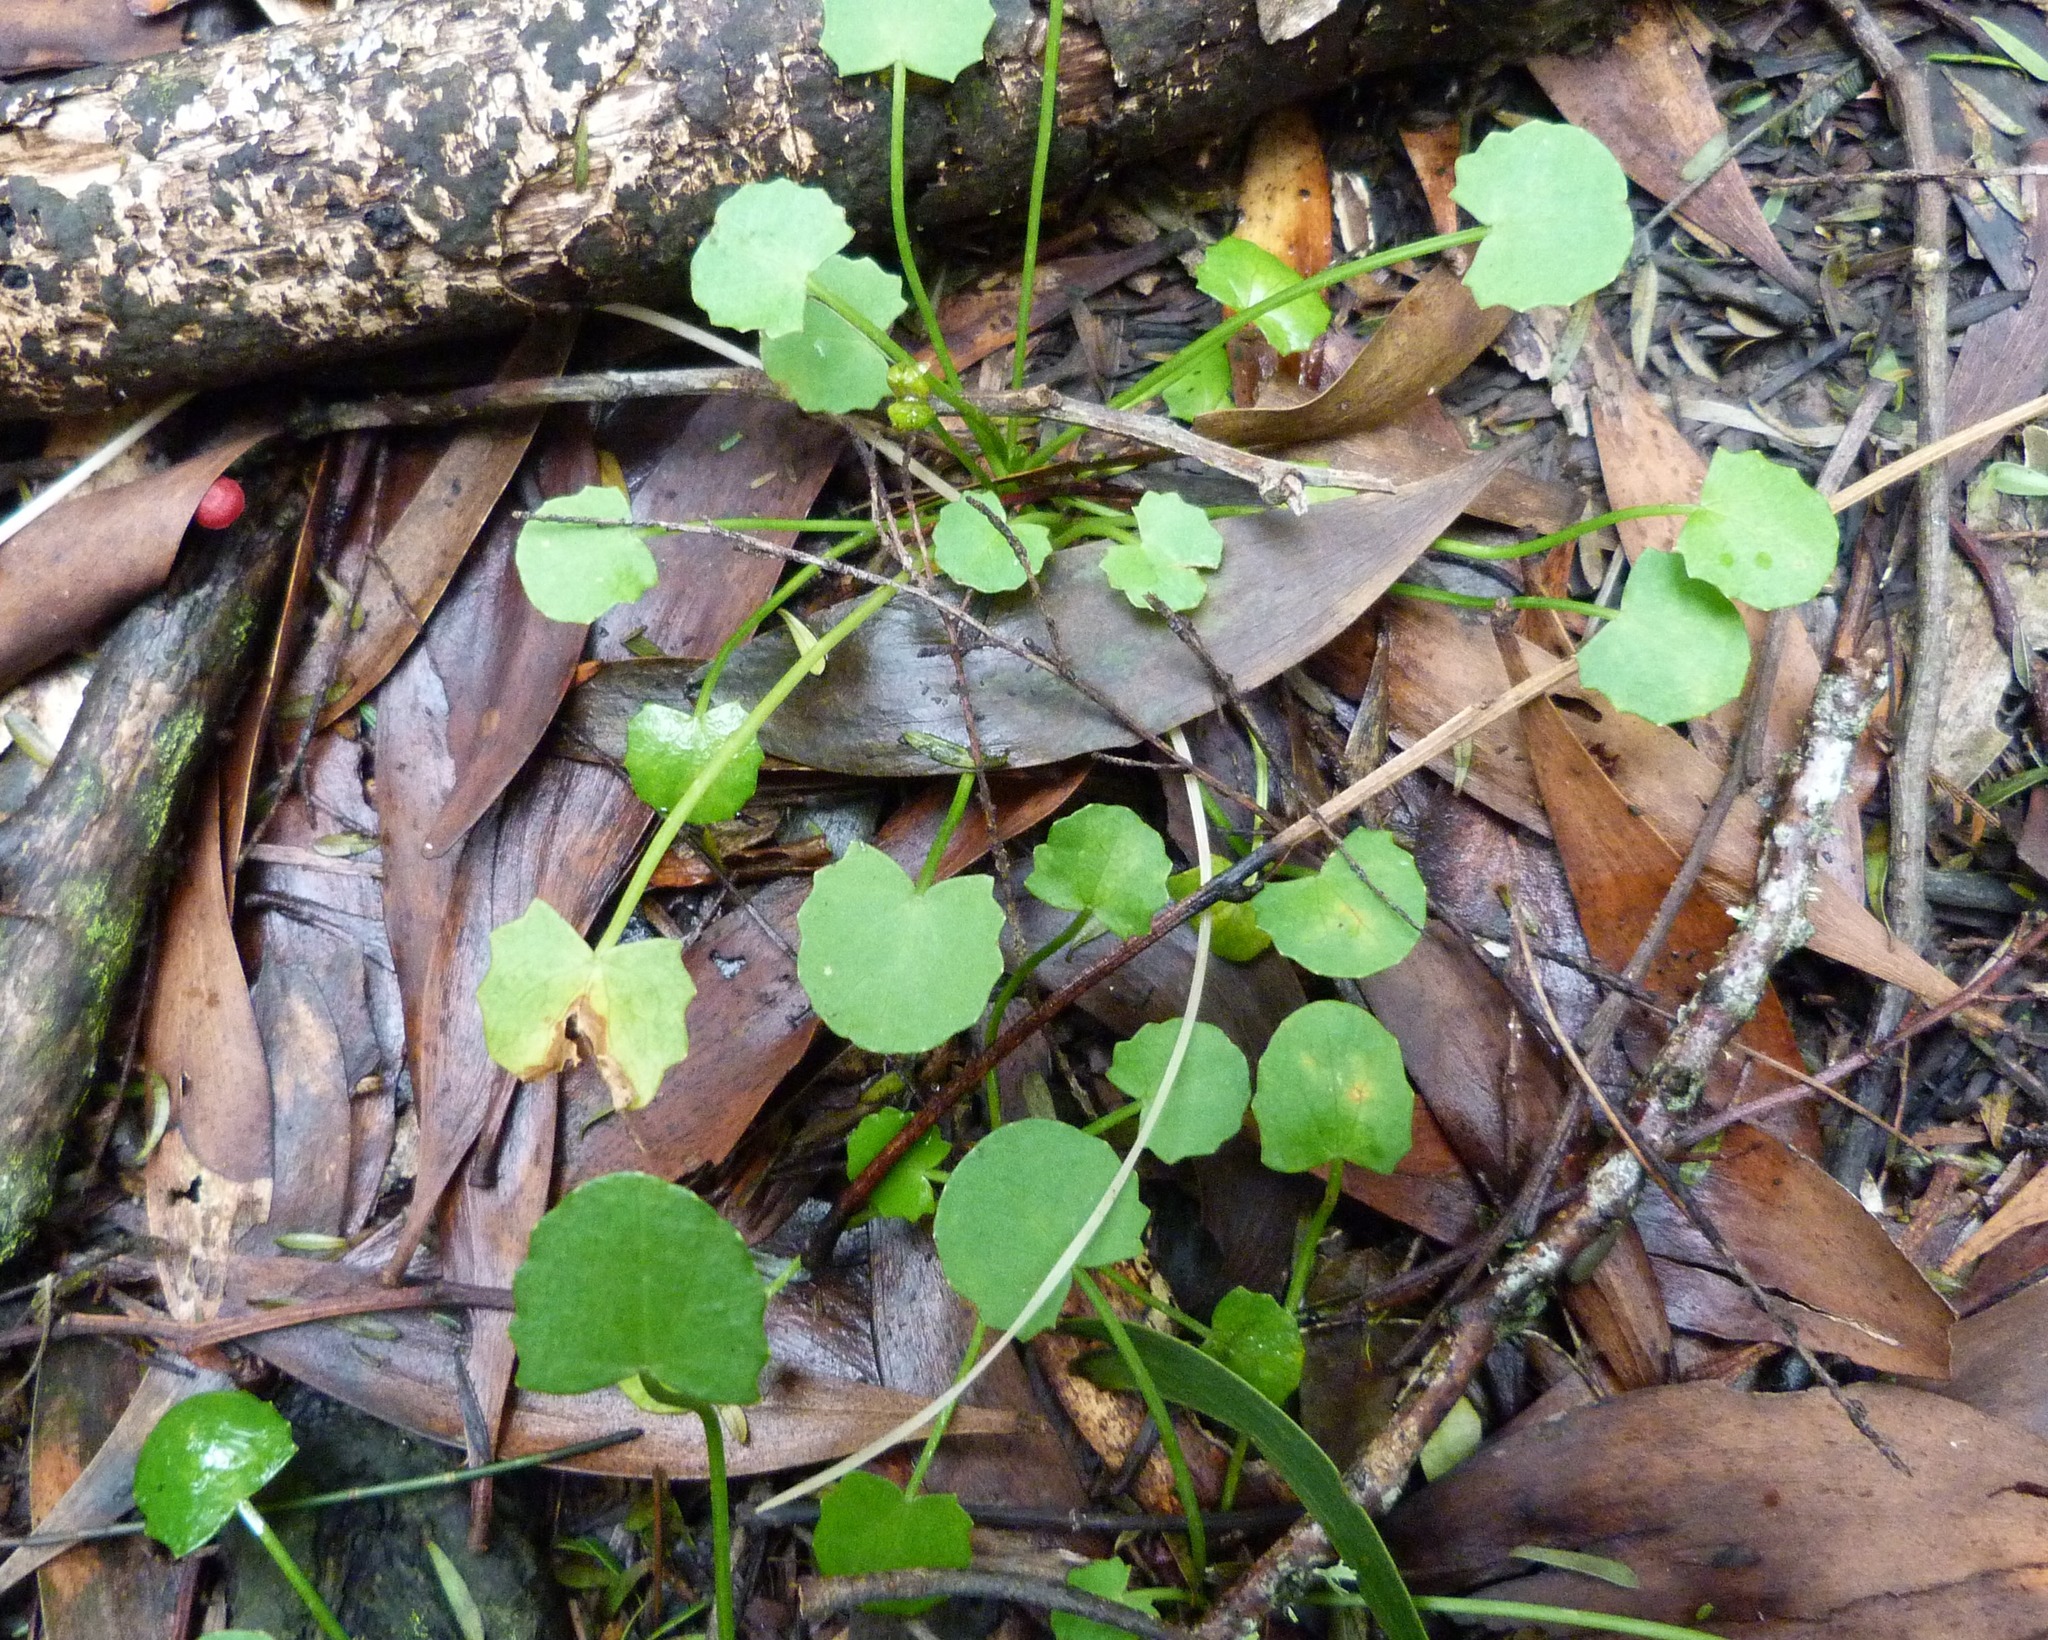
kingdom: Plantae
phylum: Tracheophyta
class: Magnoliopsida
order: Apiales
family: Apiaceae
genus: Centella
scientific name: Centella uniflora
